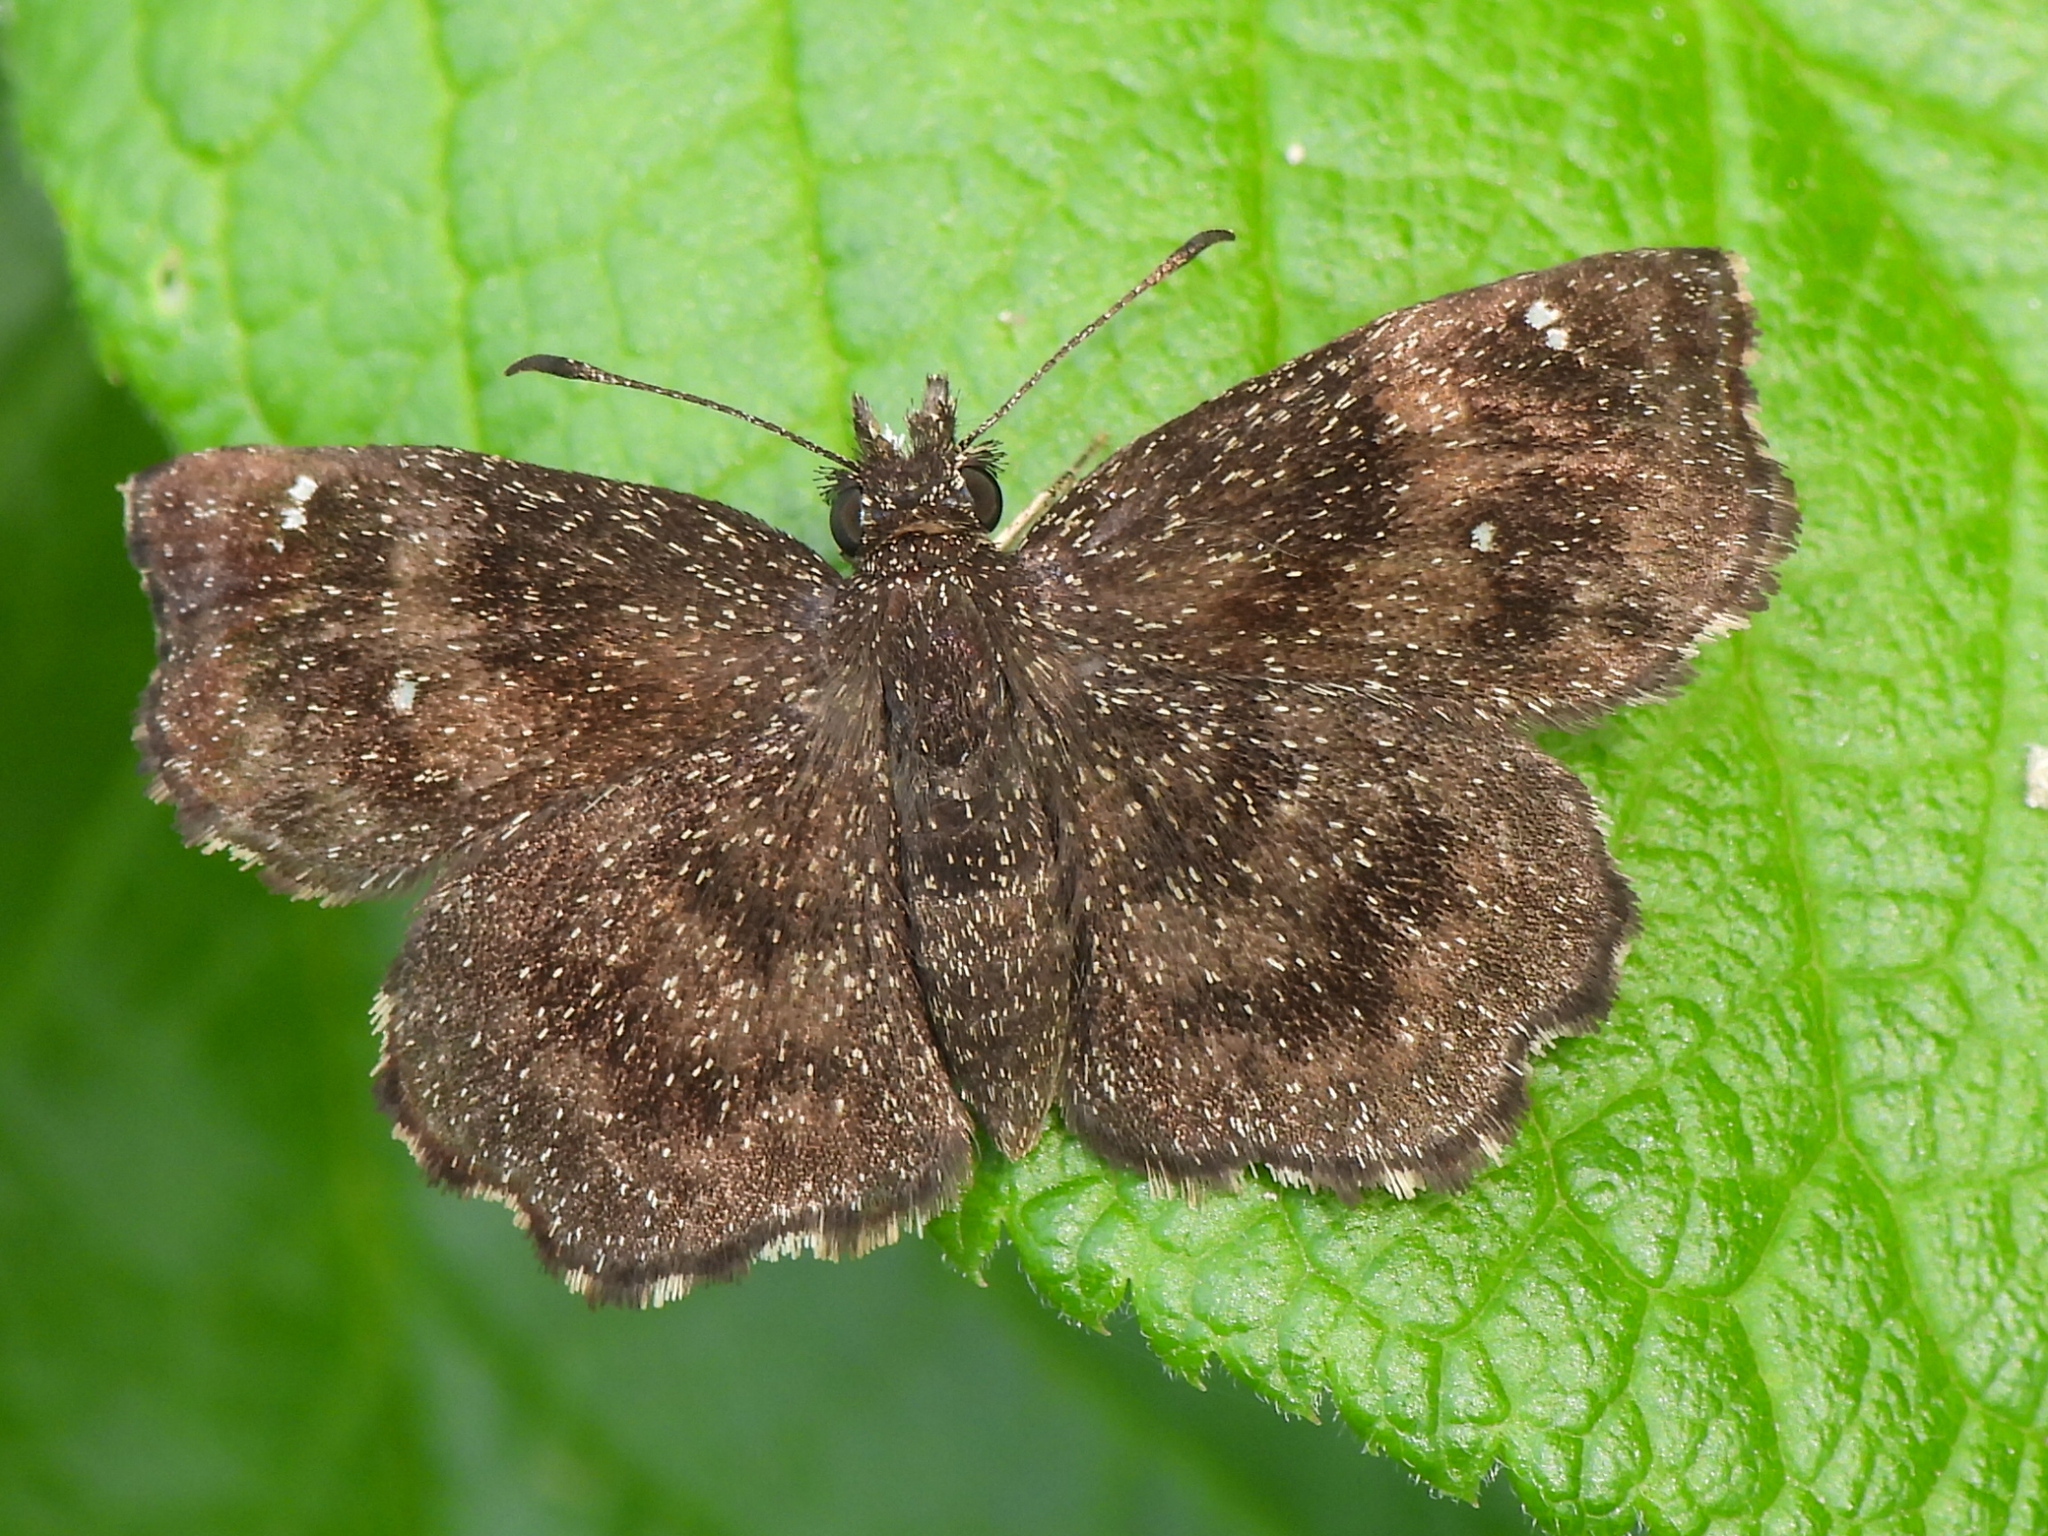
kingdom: Animalia
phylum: Arthropoda
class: Insecta
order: Lepidoptera
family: Hesperiidae
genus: Staphylus
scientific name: Staphylus mazans
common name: Mazans scallopwing
